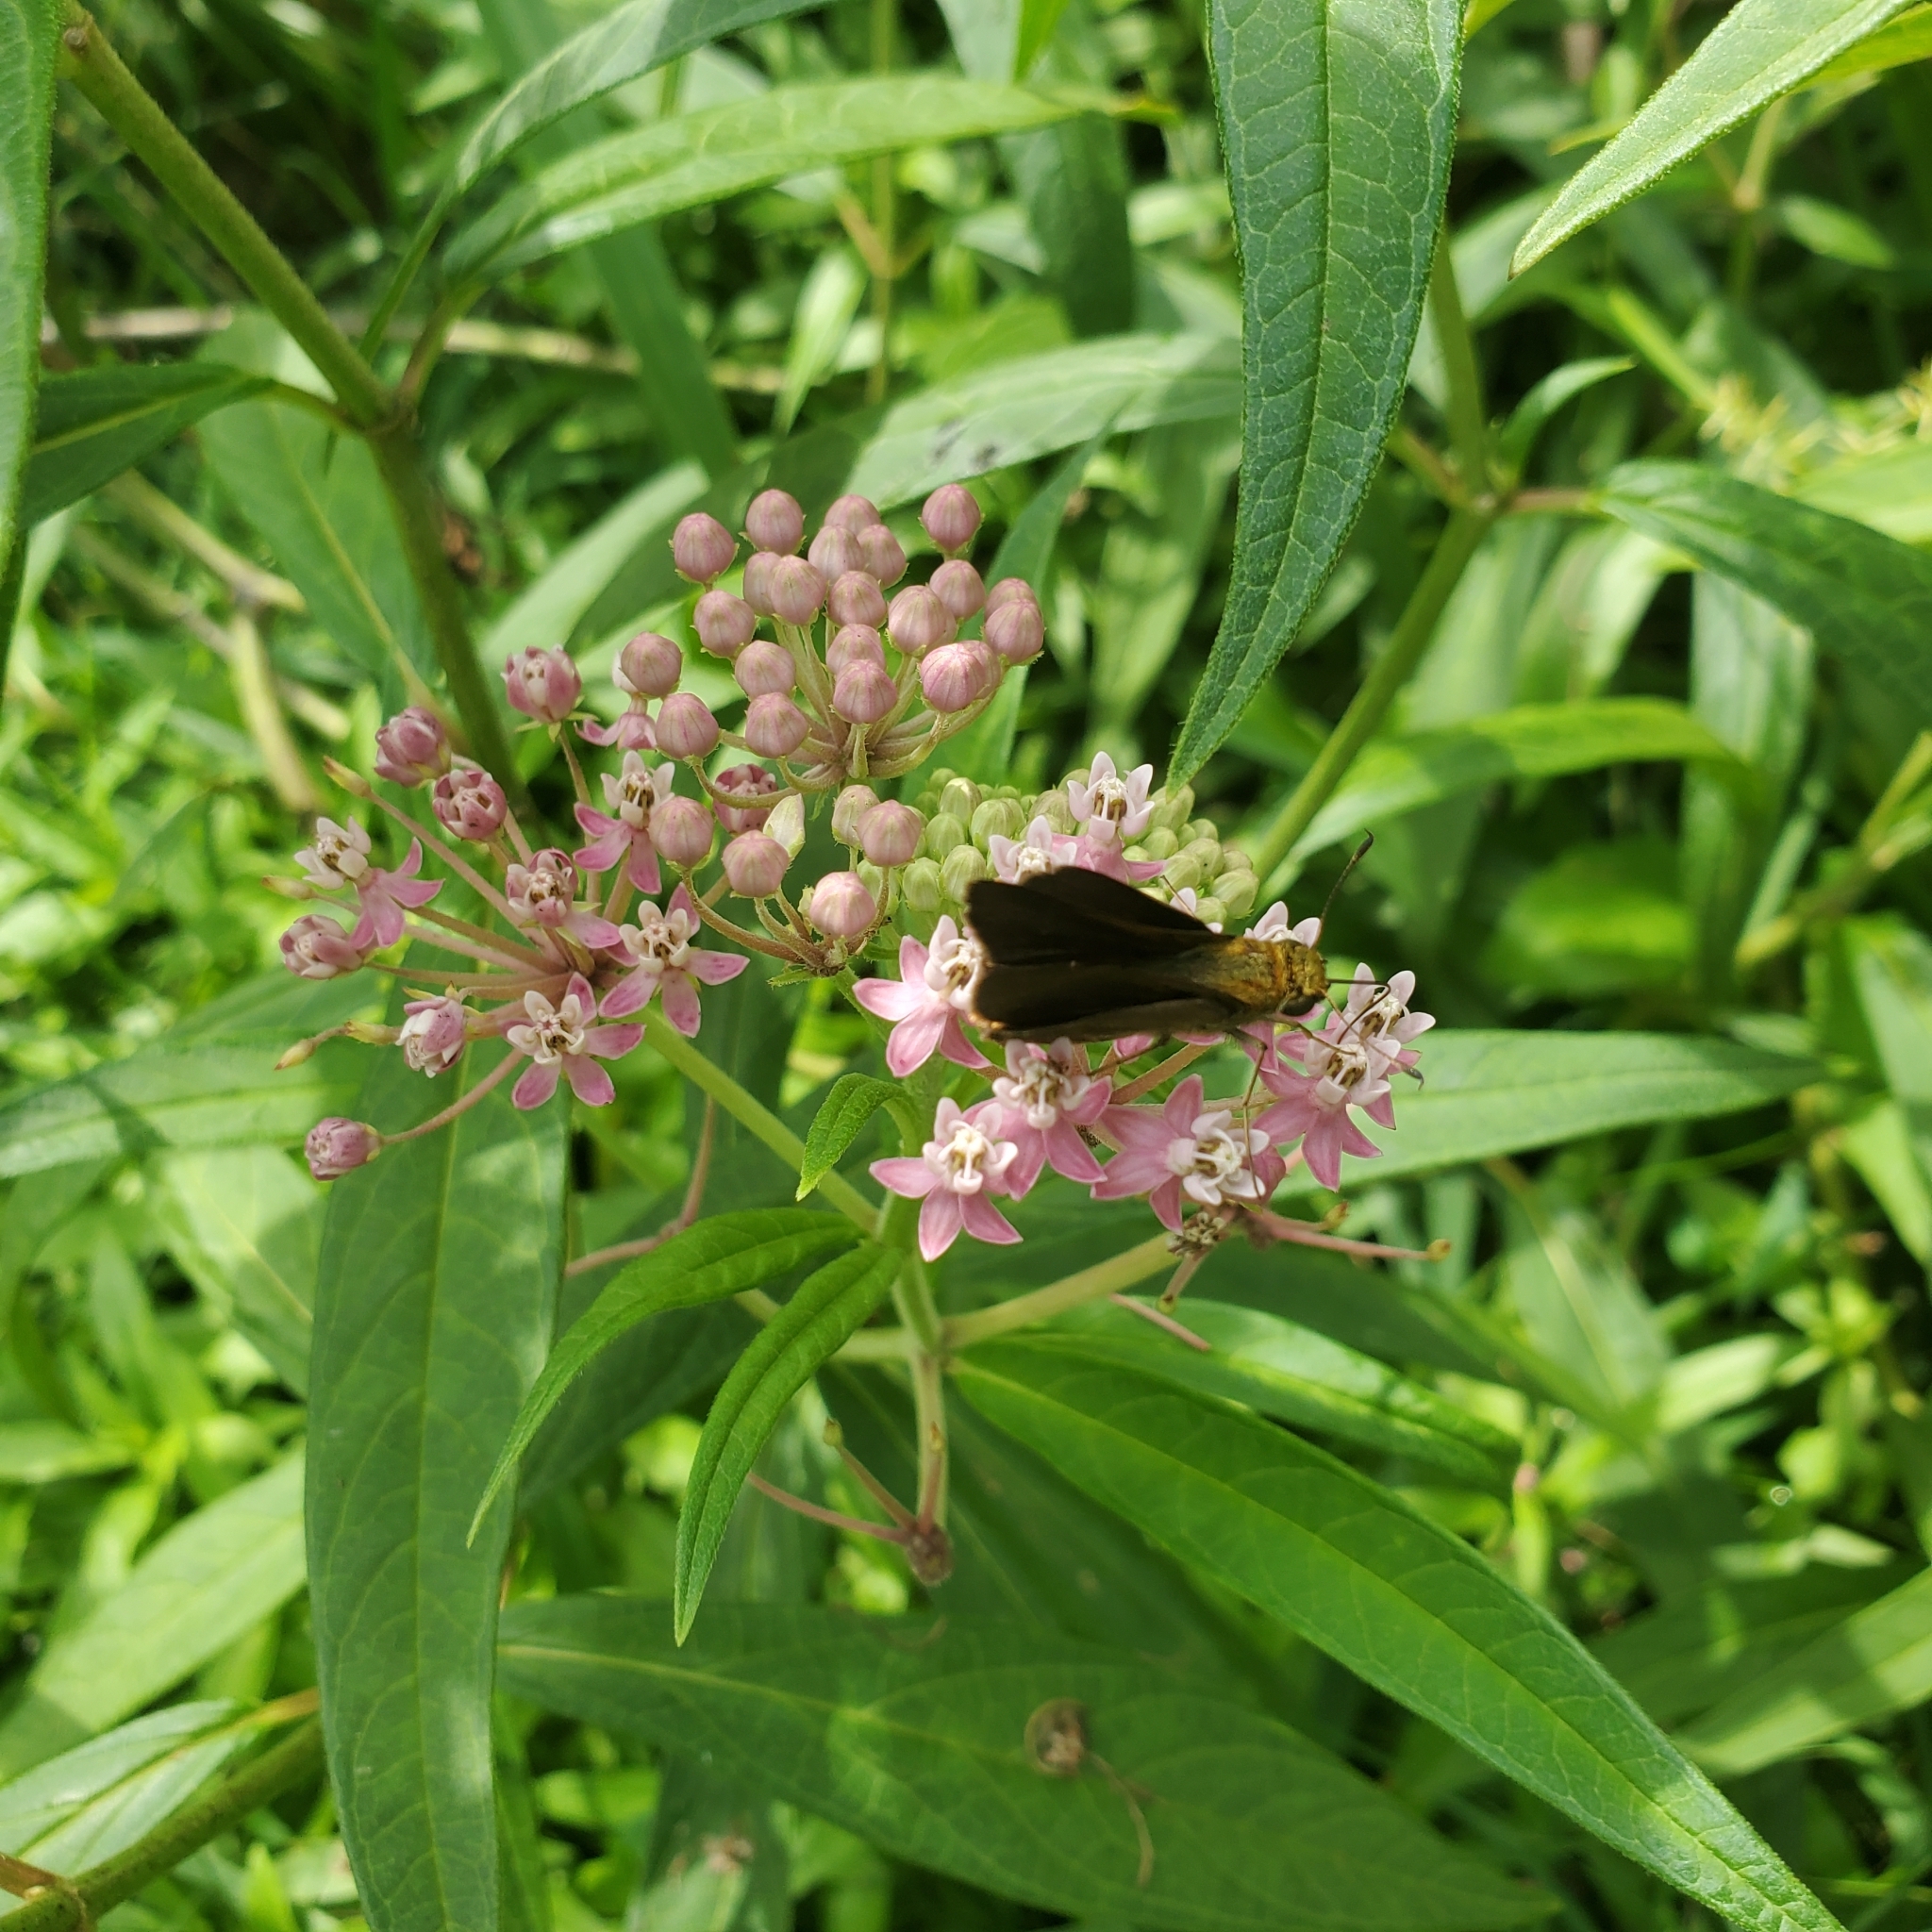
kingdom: Animalia
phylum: Arthropoda
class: Insecta
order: Lepidoptera
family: Hesperiidae
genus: Euphyes
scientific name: Euphyes vestris
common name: Dun skipper
